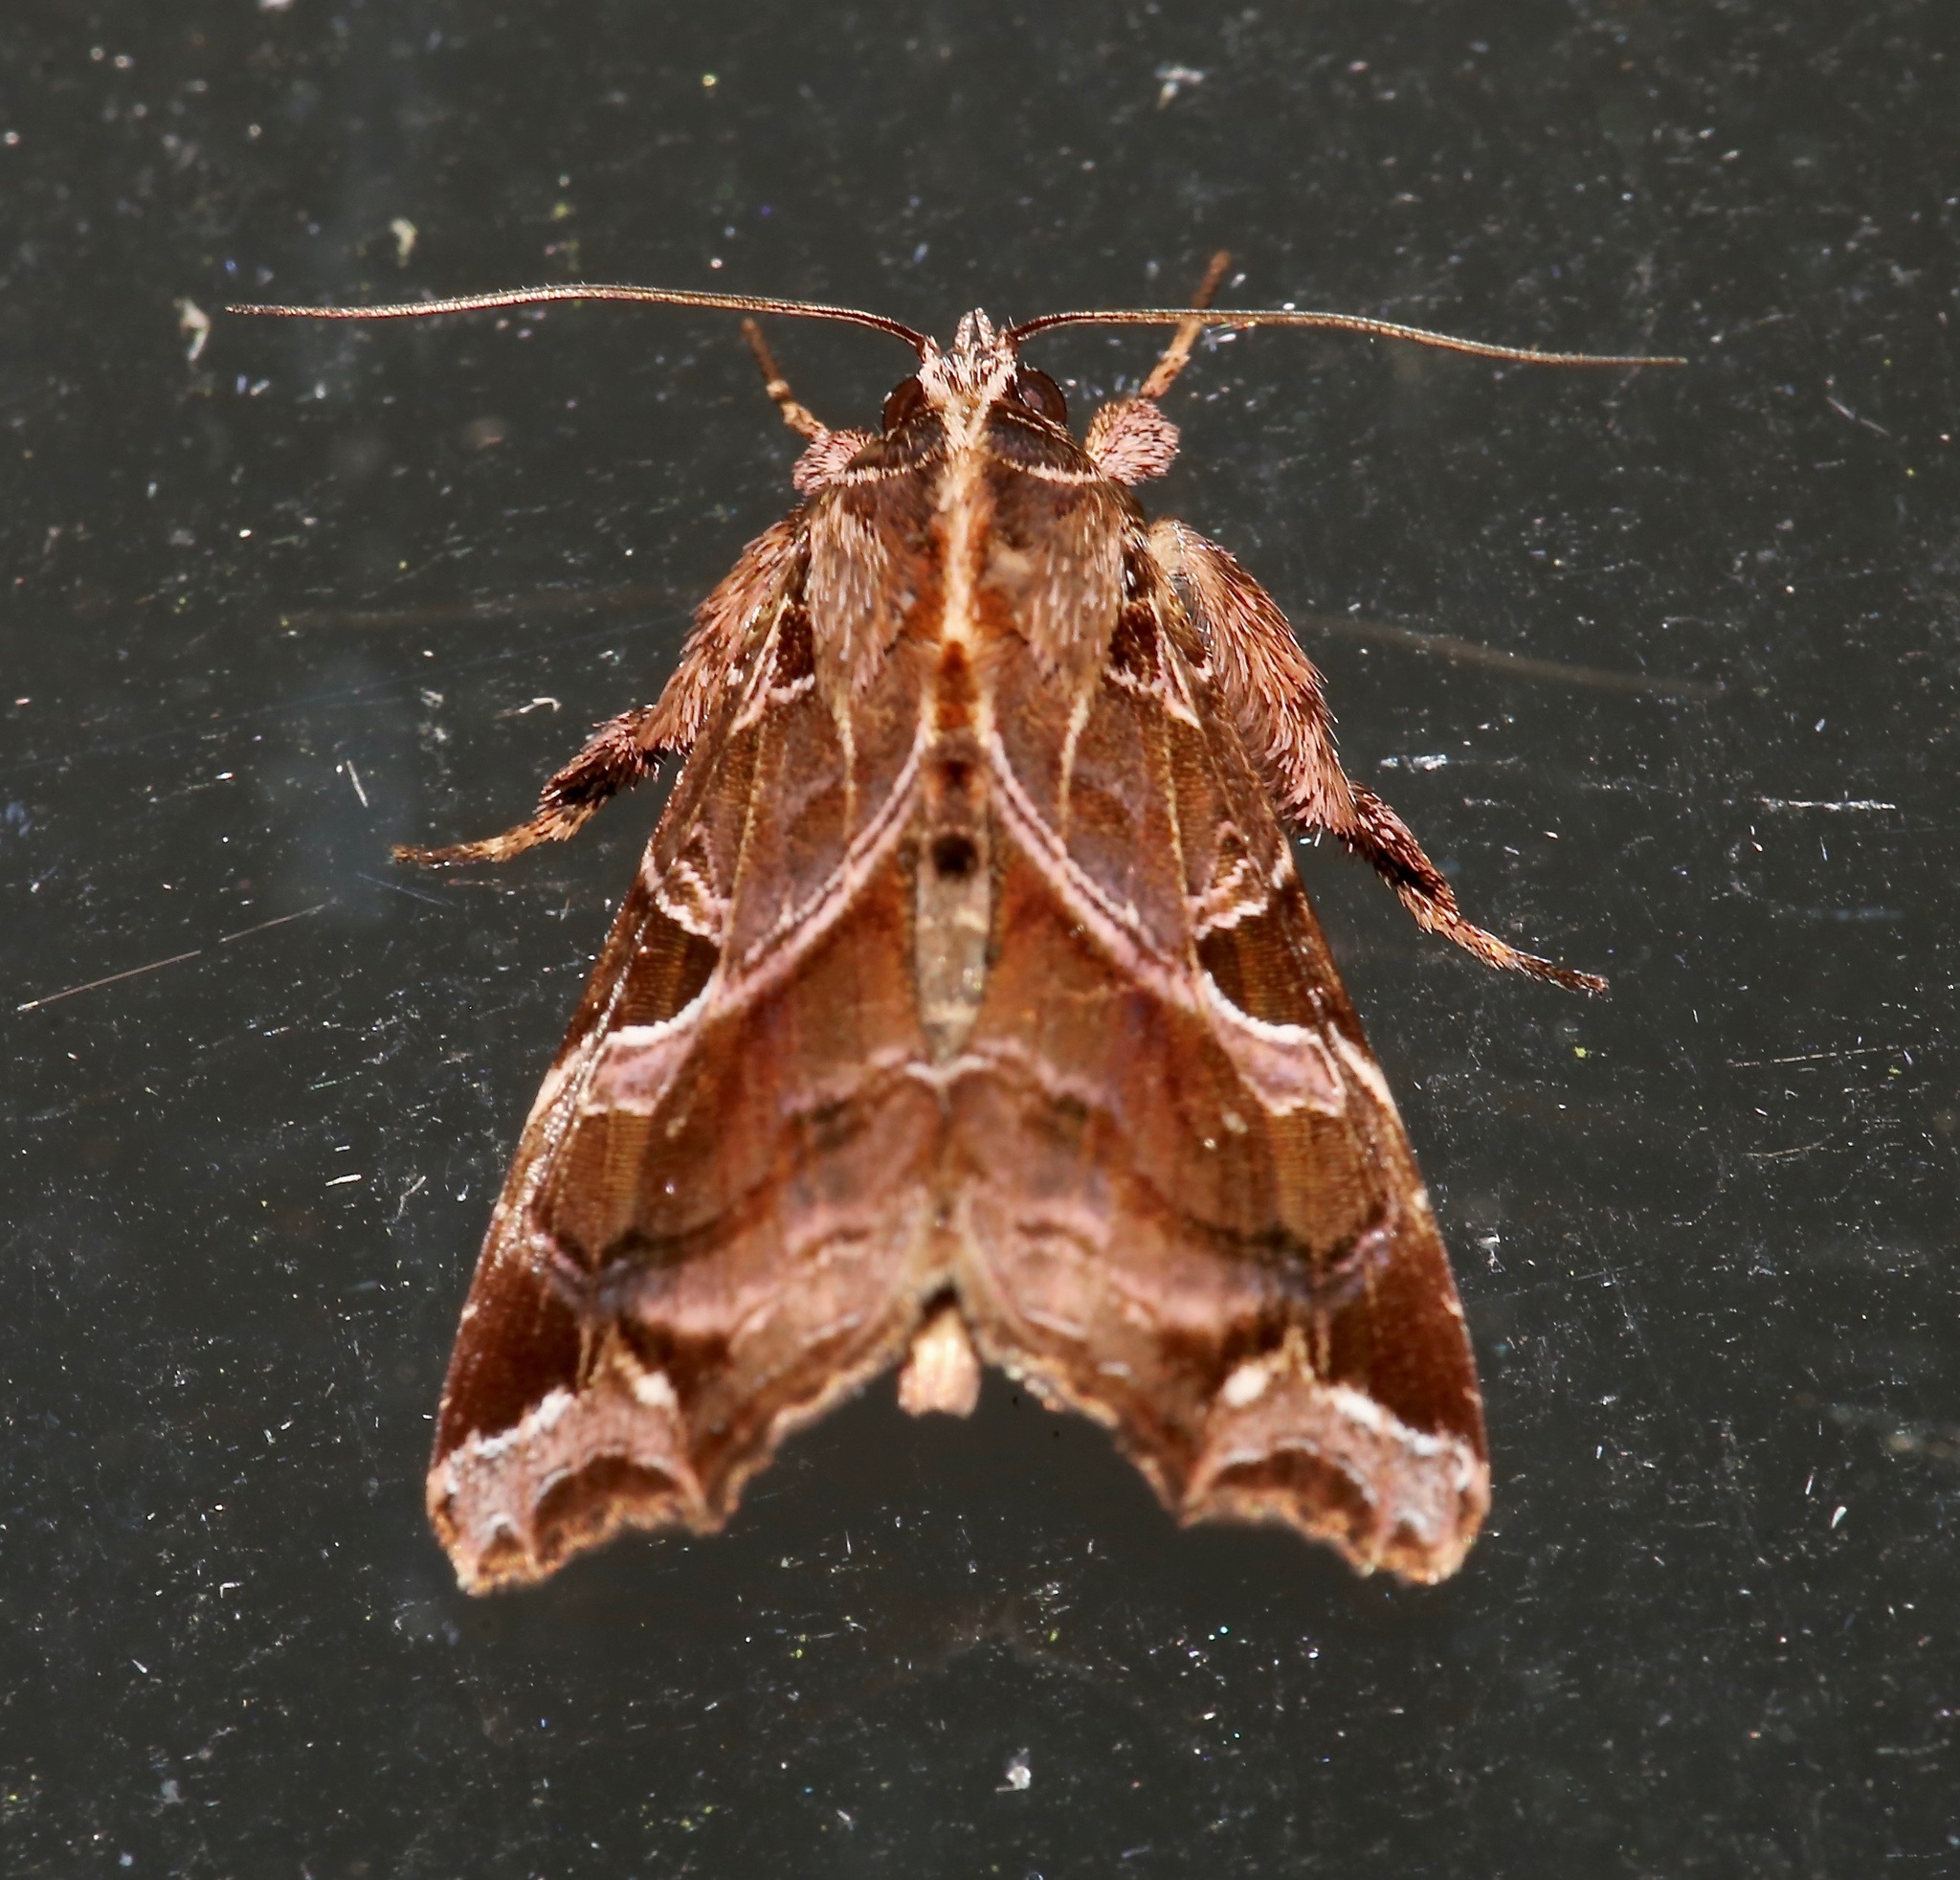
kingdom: Animalia
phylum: Arthropoda
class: Insecta
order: Lepidoptera
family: Noctuidae
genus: Callopistria
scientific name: Callopistria floridensis
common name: Florida fern moth
